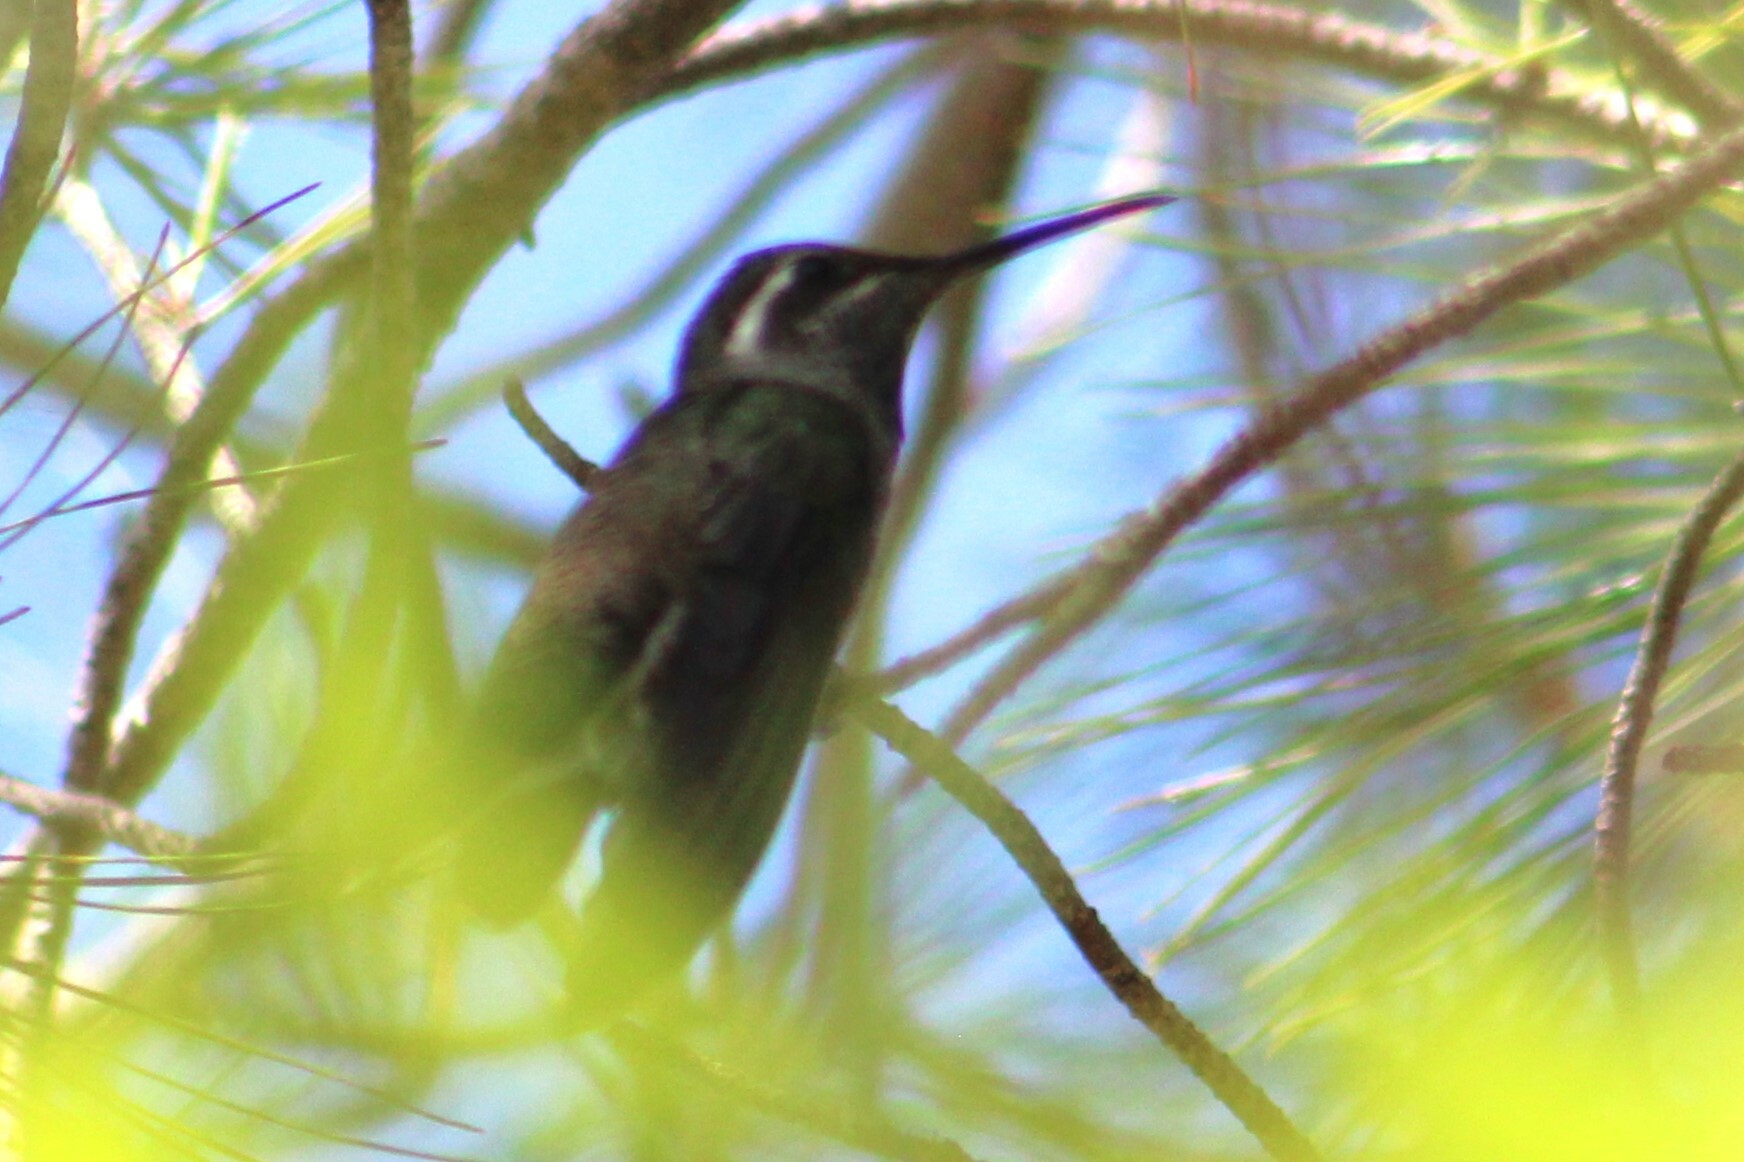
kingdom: Animalia
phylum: Chordata
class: Aves
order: Apodiformes
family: Trochilidae
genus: Lampornis
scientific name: Lampornis clemenciae
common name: Blue-throated mountaingem
